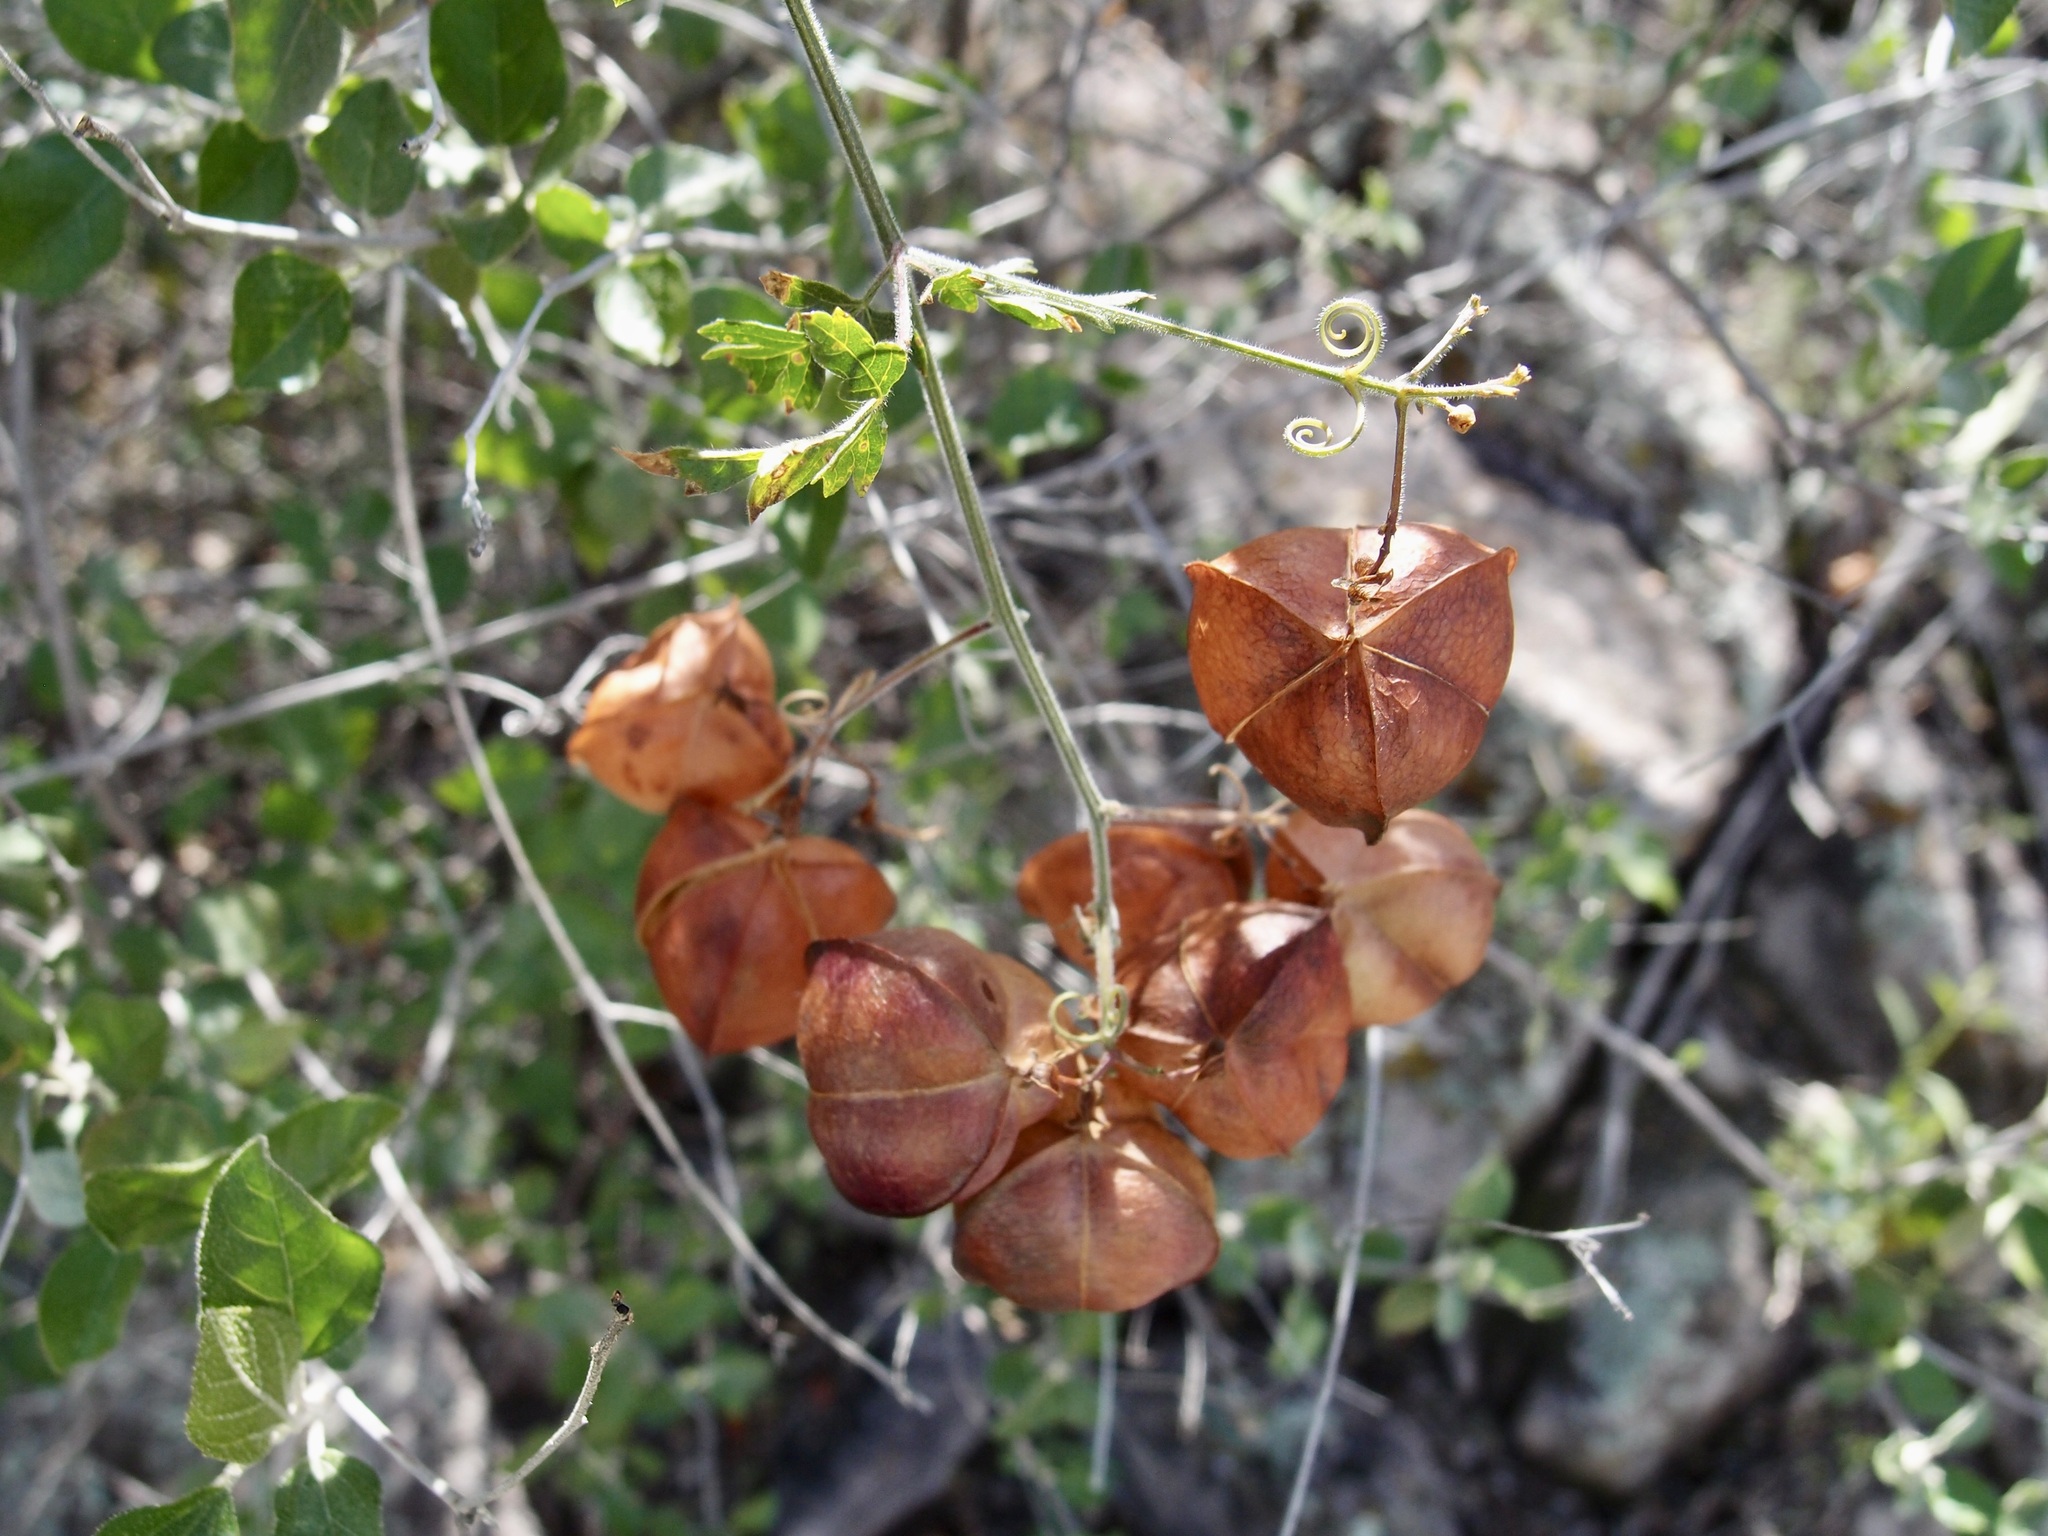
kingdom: Plantae
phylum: Tracheophyta
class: Magnoliopsida
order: Sapindales
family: Sapindaceae
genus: Cardiospermum
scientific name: Cardiospermum corindum
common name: Faux persil
